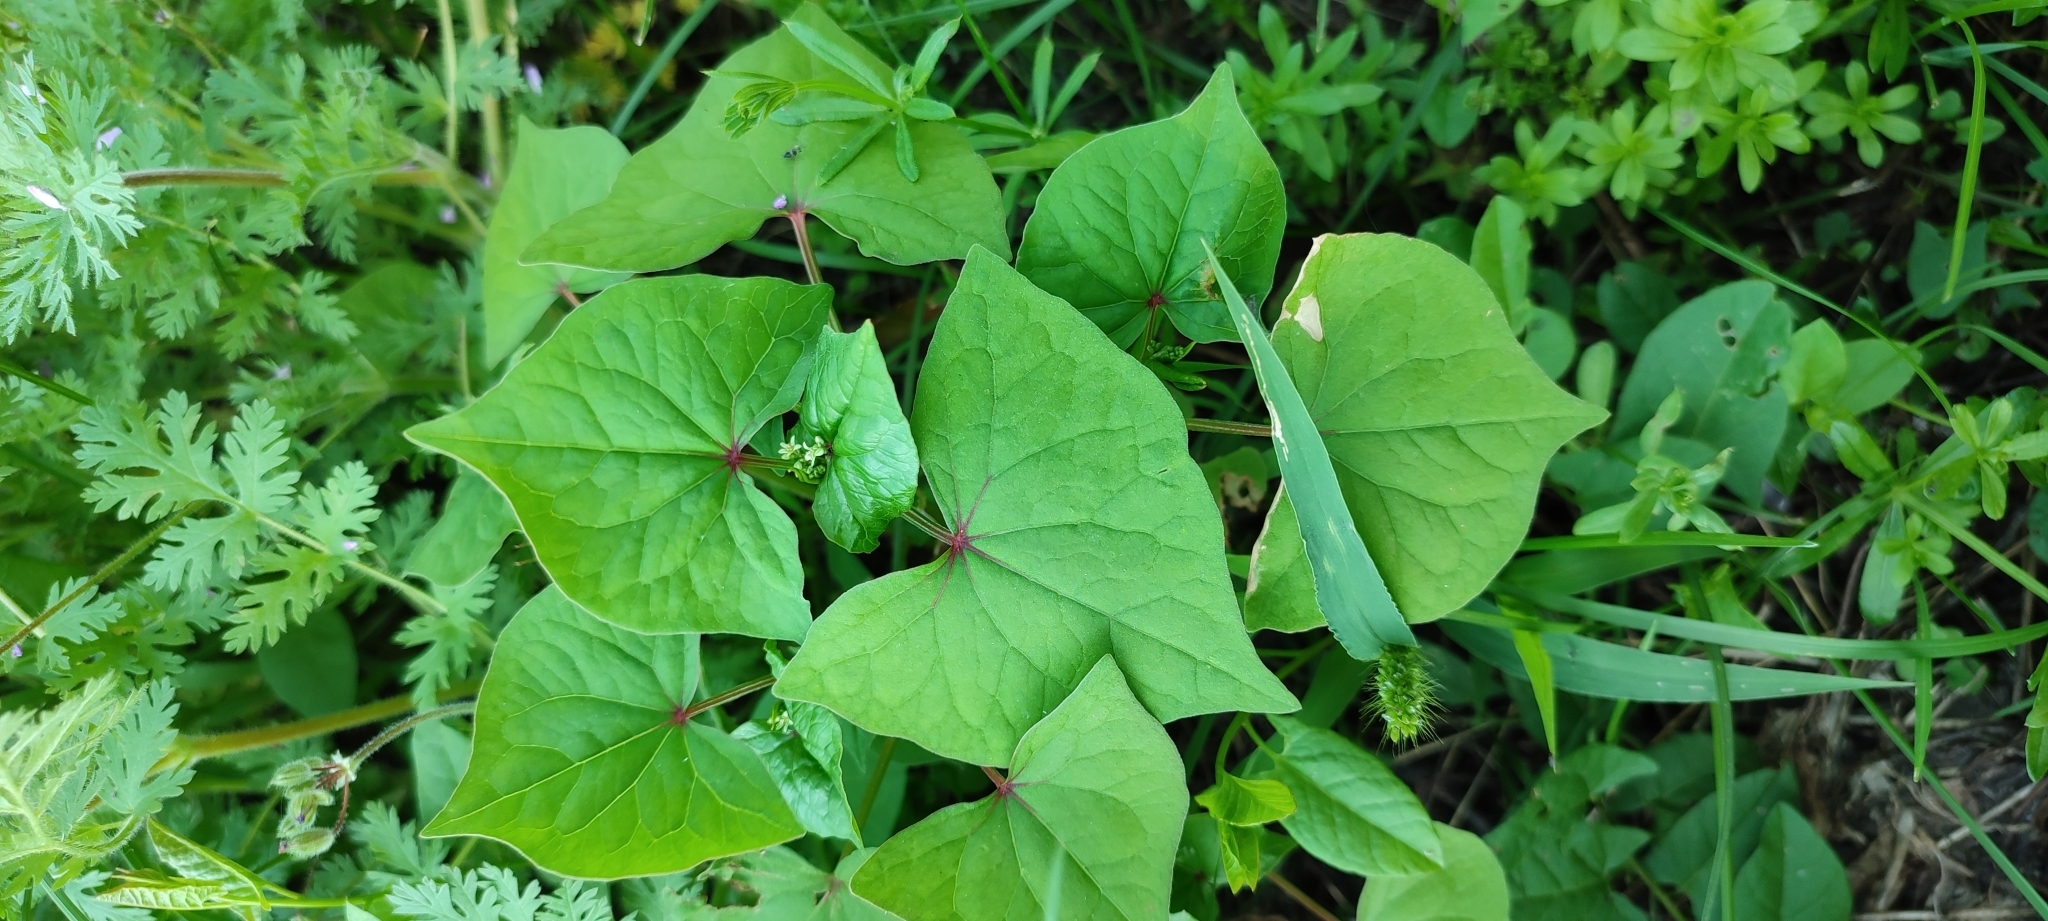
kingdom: Plantae
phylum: Tracheophyta
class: Magnoliopsida
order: Caryophyllales
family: Polygonaceae
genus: Fagopyrum
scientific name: Fagopyrum tataricum
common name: Green buckwheat
